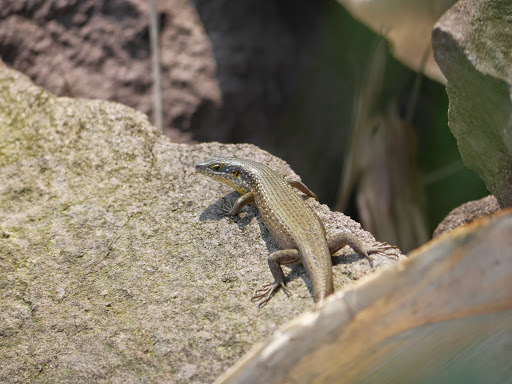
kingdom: Animalia
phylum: Chordata
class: Squamata
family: Scincidae
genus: Trachylepis
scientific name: Trachylepis maculilabris
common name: Speckle-lipped mabuya
